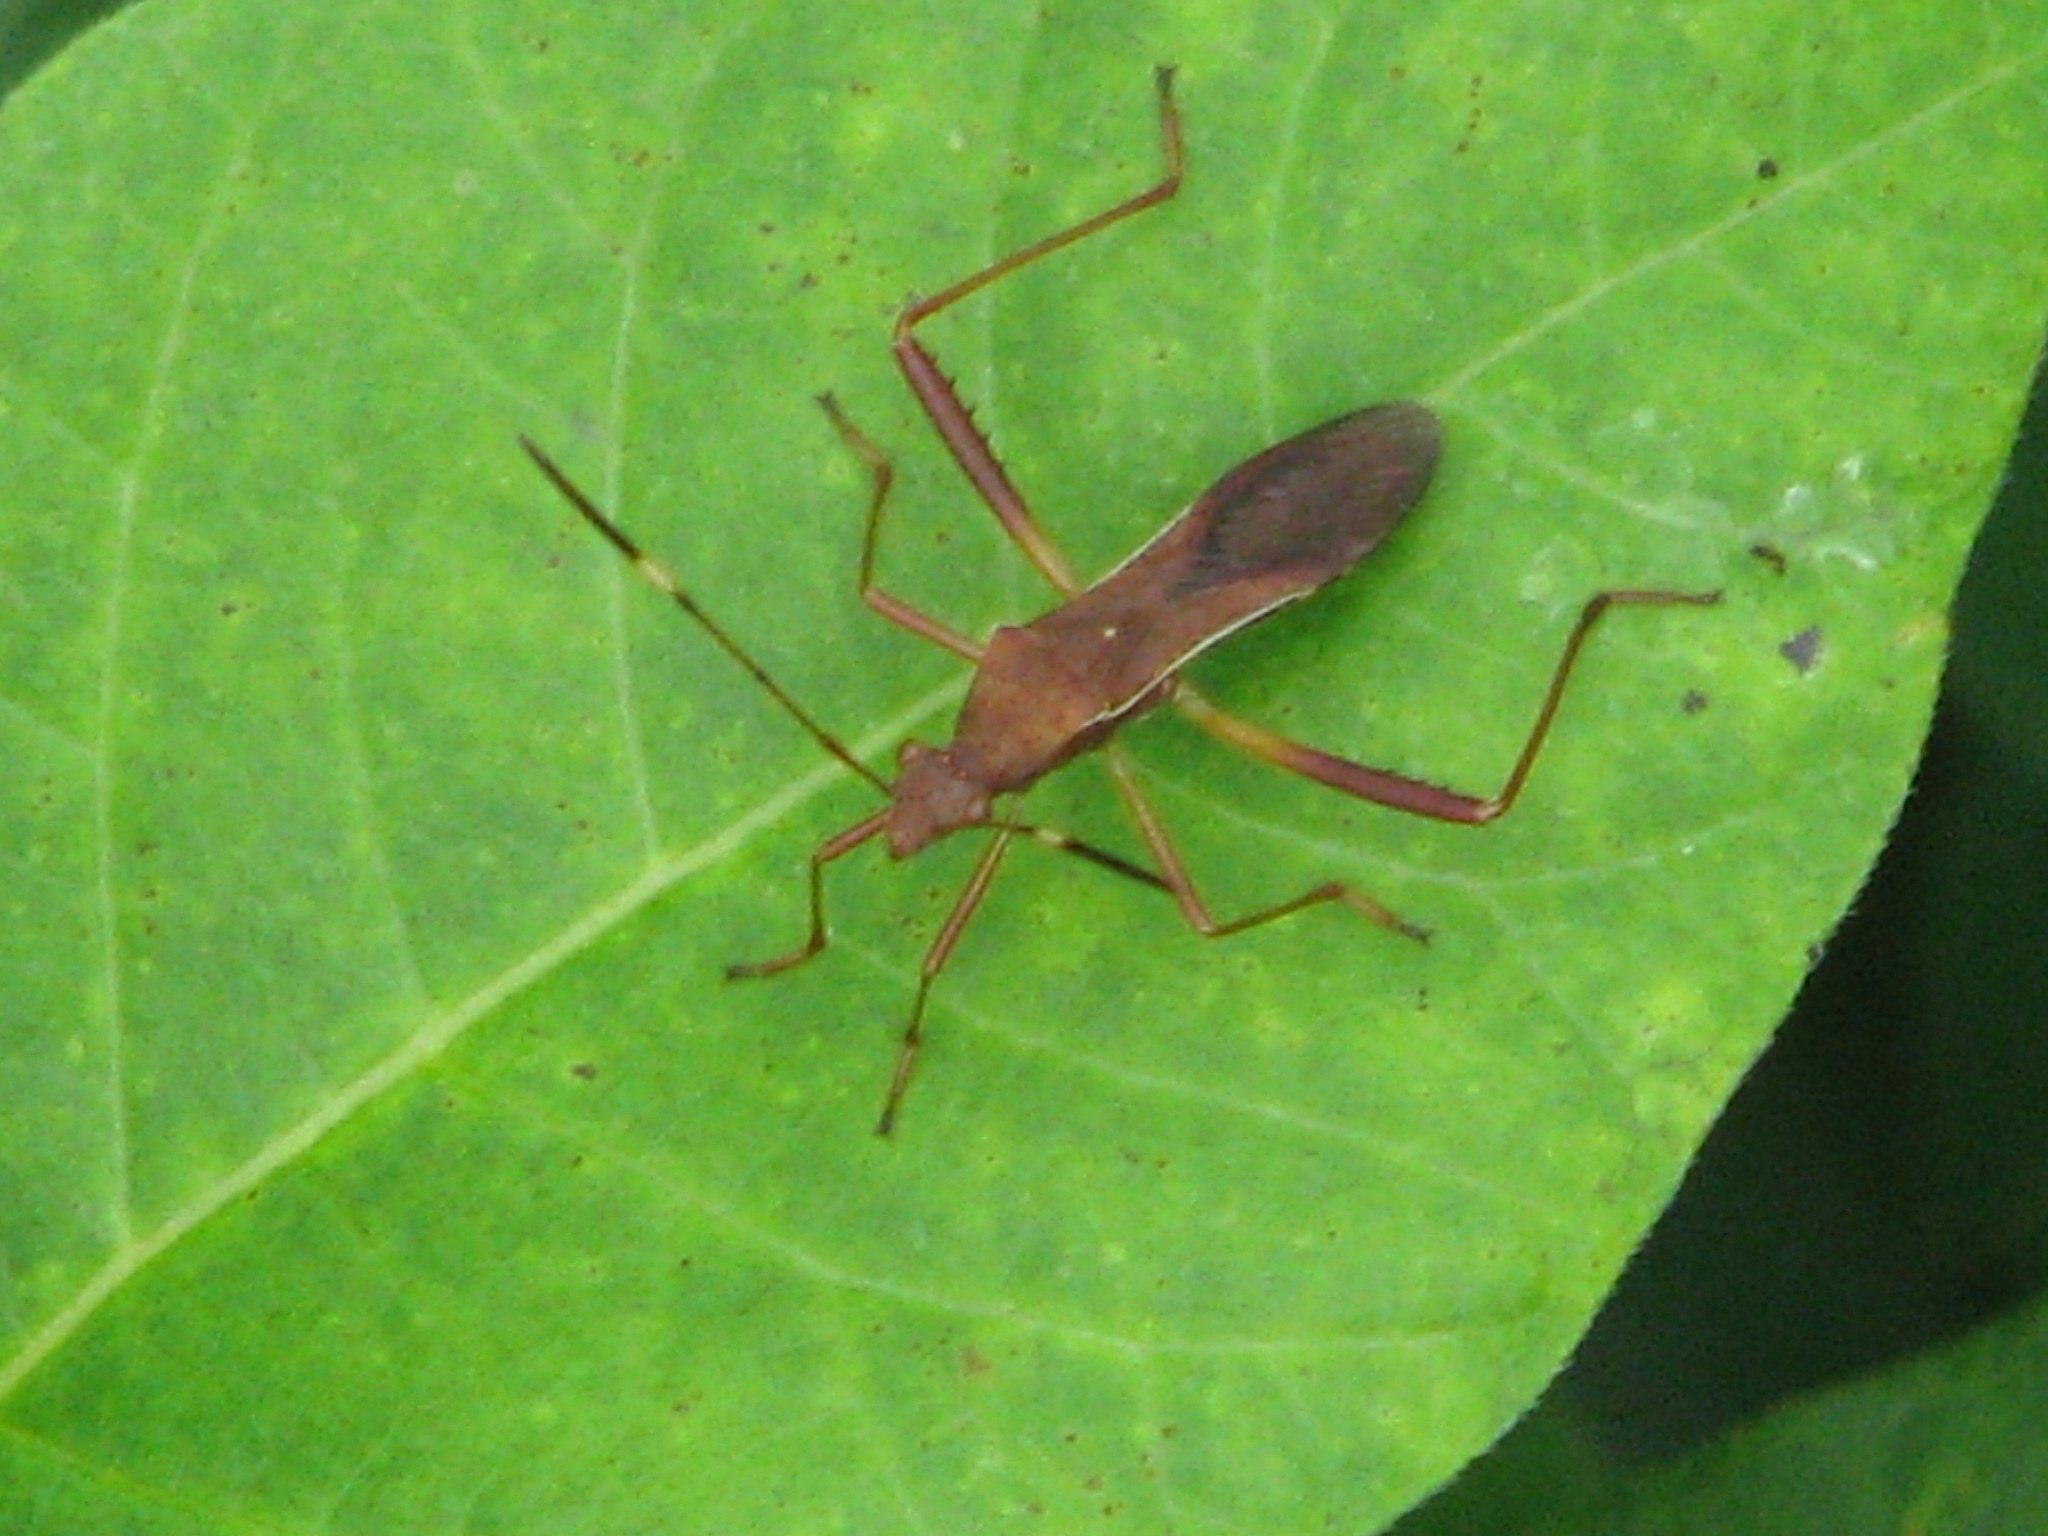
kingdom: Animalia
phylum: Arthropoda
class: Insecta
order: Hemiptera
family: Alydidae
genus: Megalotomus
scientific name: Megalotomus quinquespinosus
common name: Lupine bug
